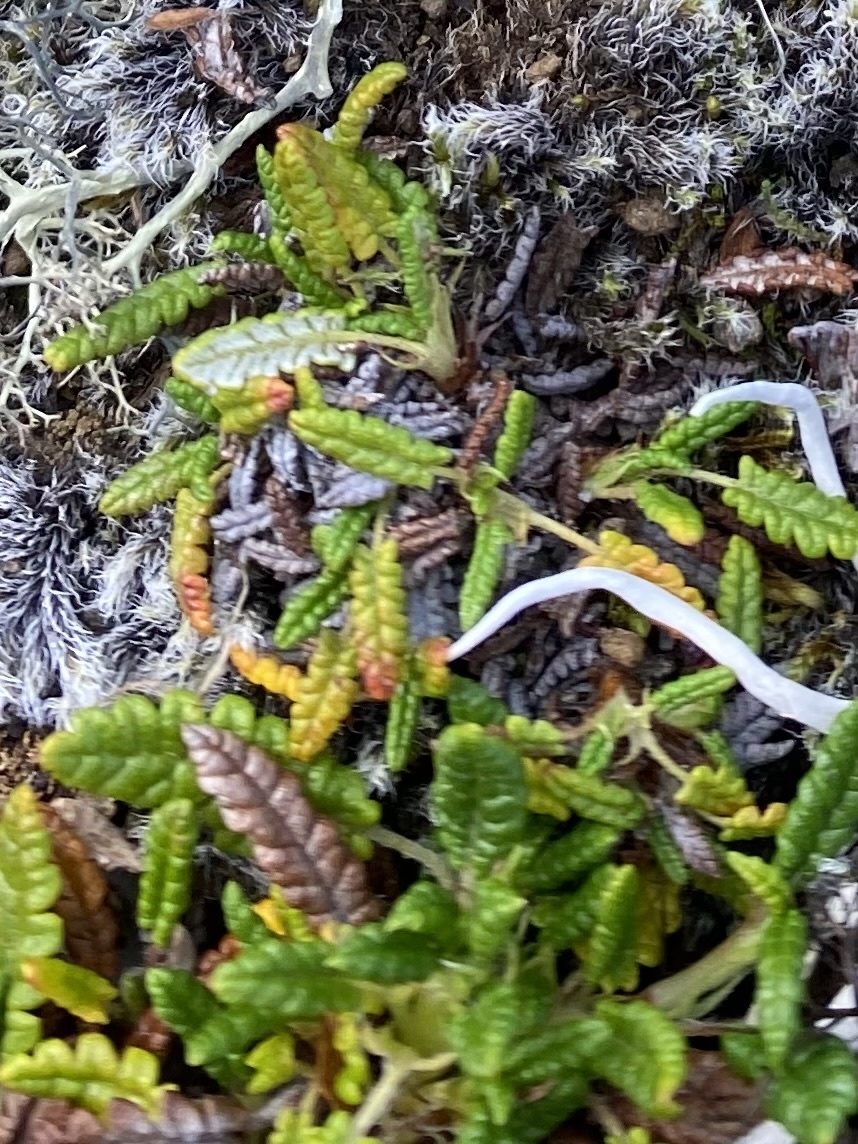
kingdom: Plantae
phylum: Tracheophyta
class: Magnoliopsida
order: Rosales
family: Rosaceae
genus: Dryas
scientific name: Dryas octopetala
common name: Eight-petal mountain-avens
